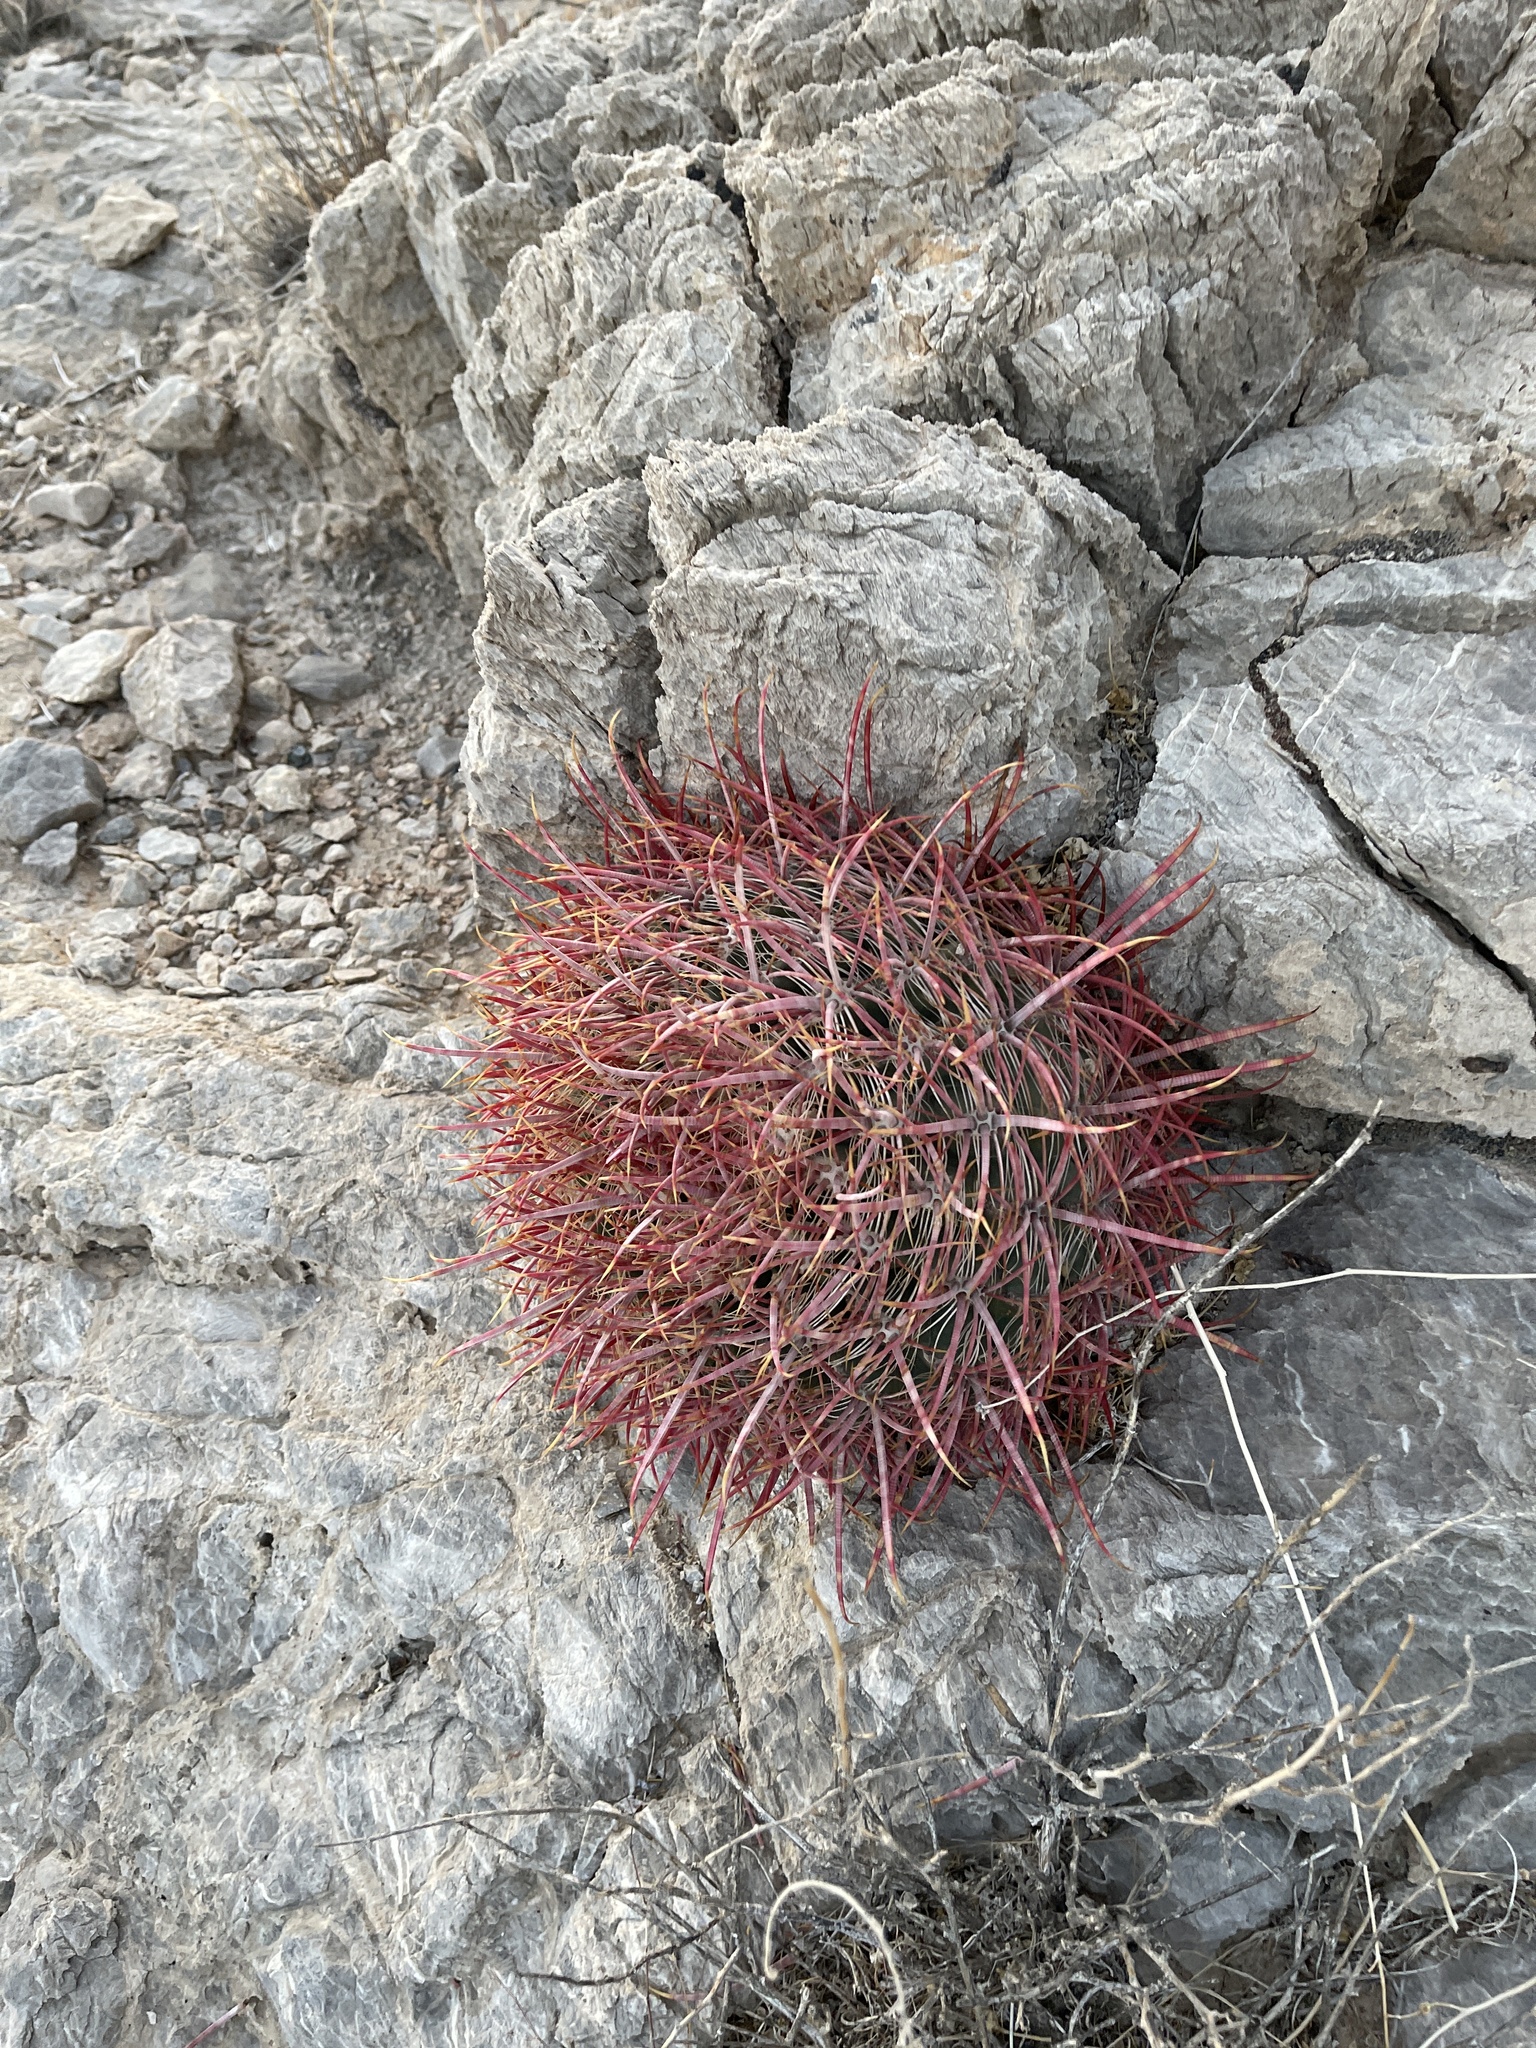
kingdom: Plantae
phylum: Tracheophyta
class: Magnoliopsida
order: Caryophyllales
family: Cactaceae
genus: Ferocactus
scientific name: Ferocactus cylindraceus
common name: California barrel cactus
